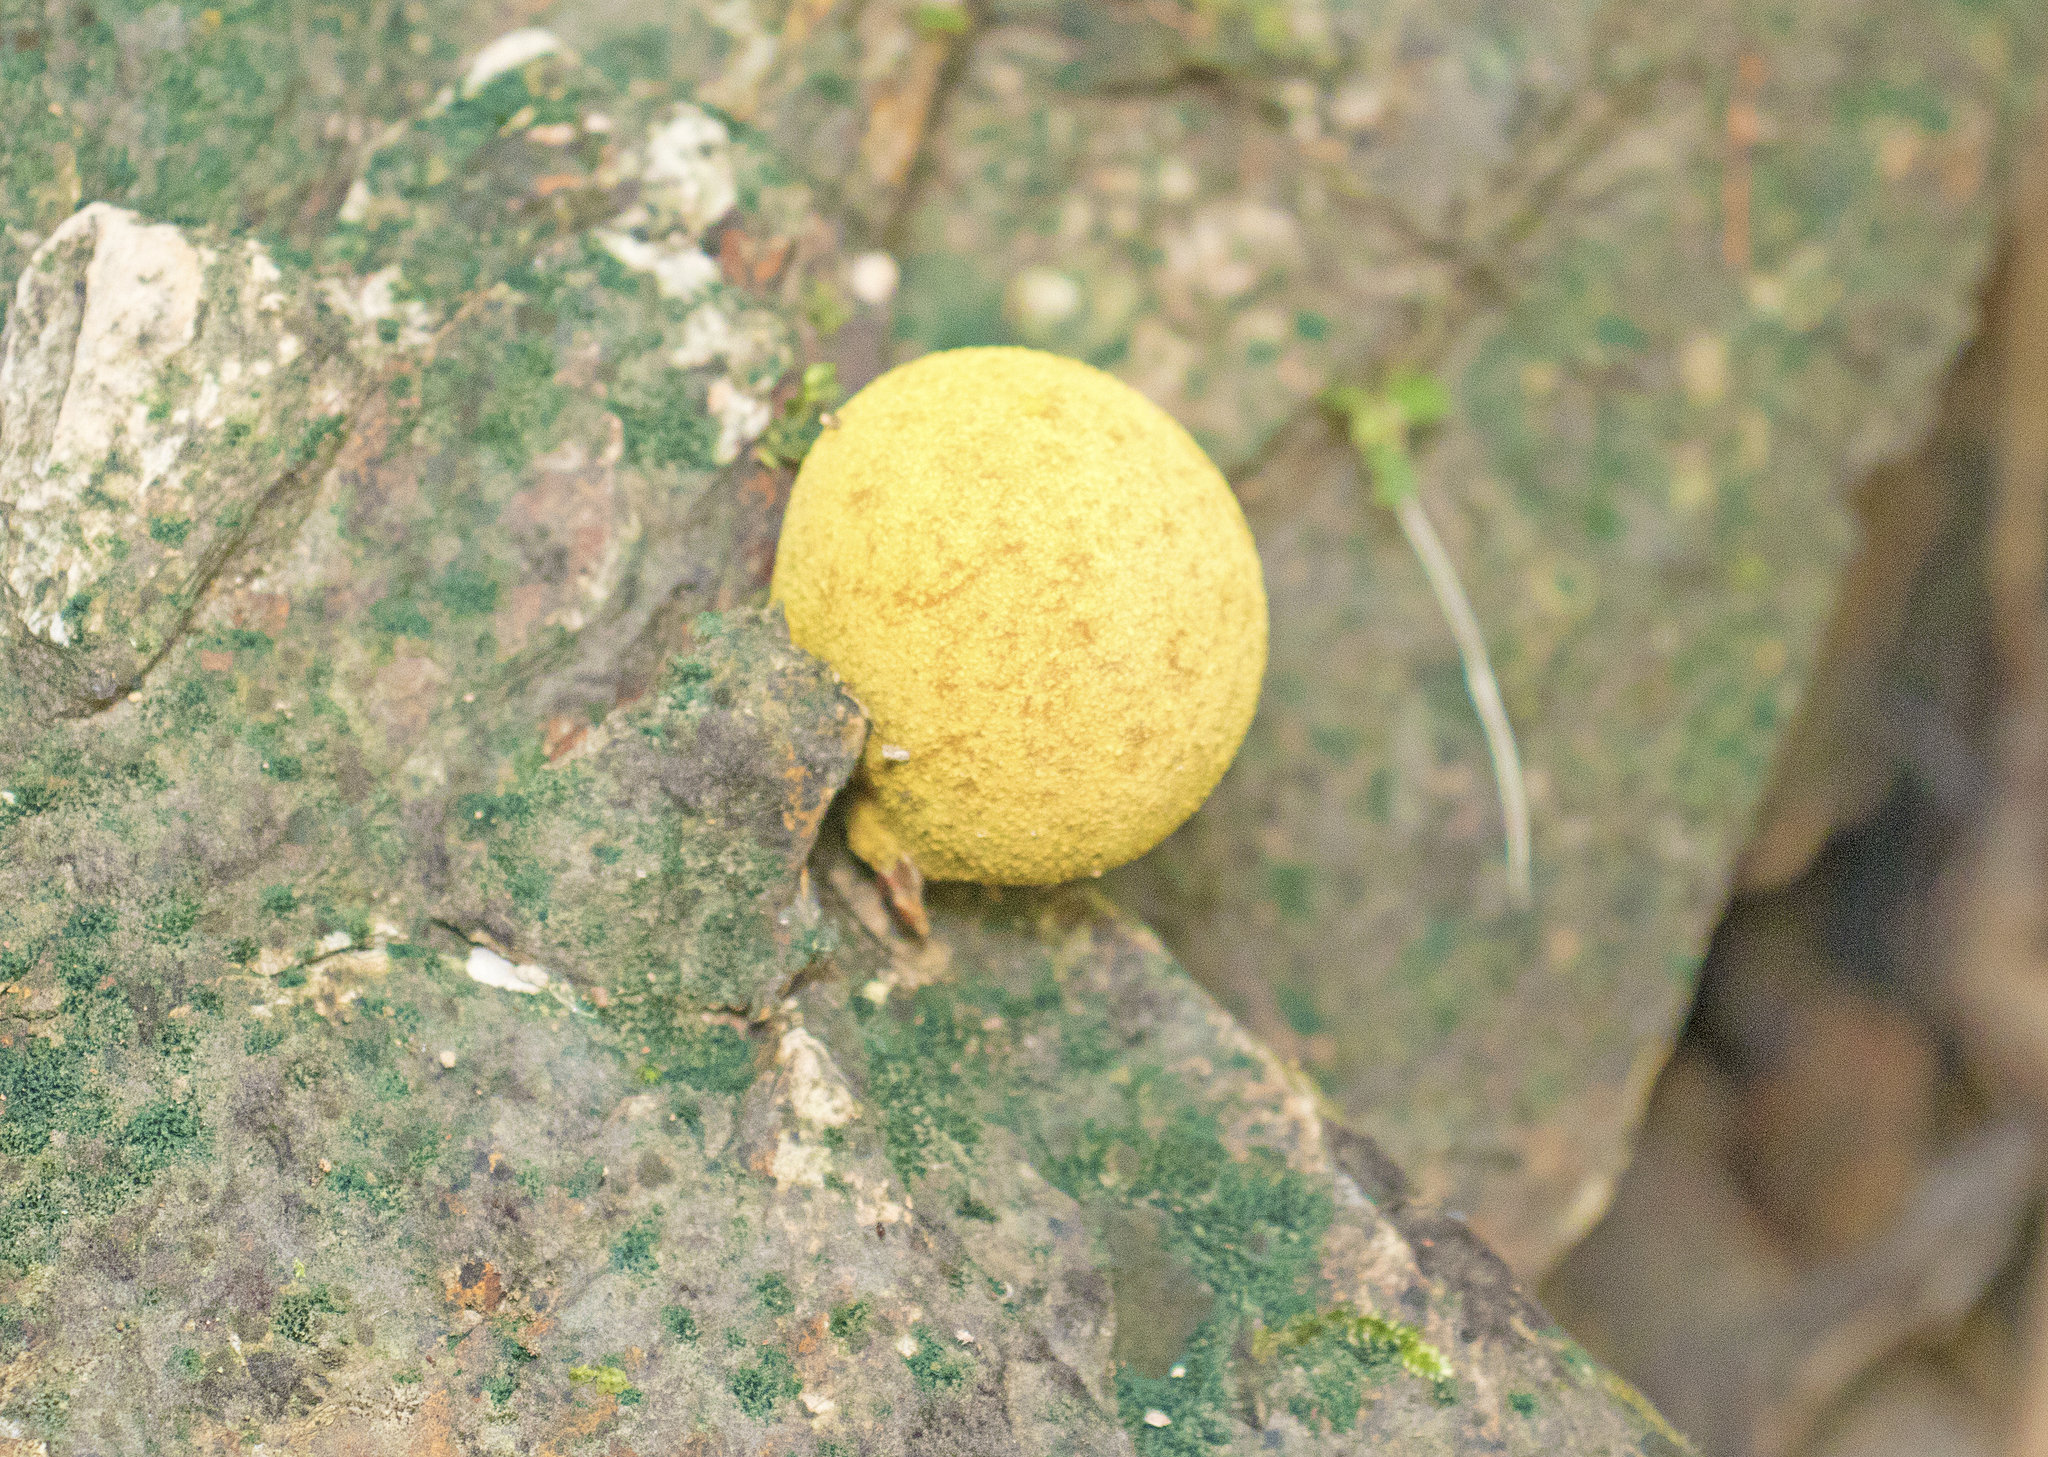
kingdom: Fungi
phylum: Basidiomycota
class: Agaricomycetes
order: Boletales
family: Sclerodermataceae
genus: Scleroderma
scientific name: Scleroderma sinnamariense
